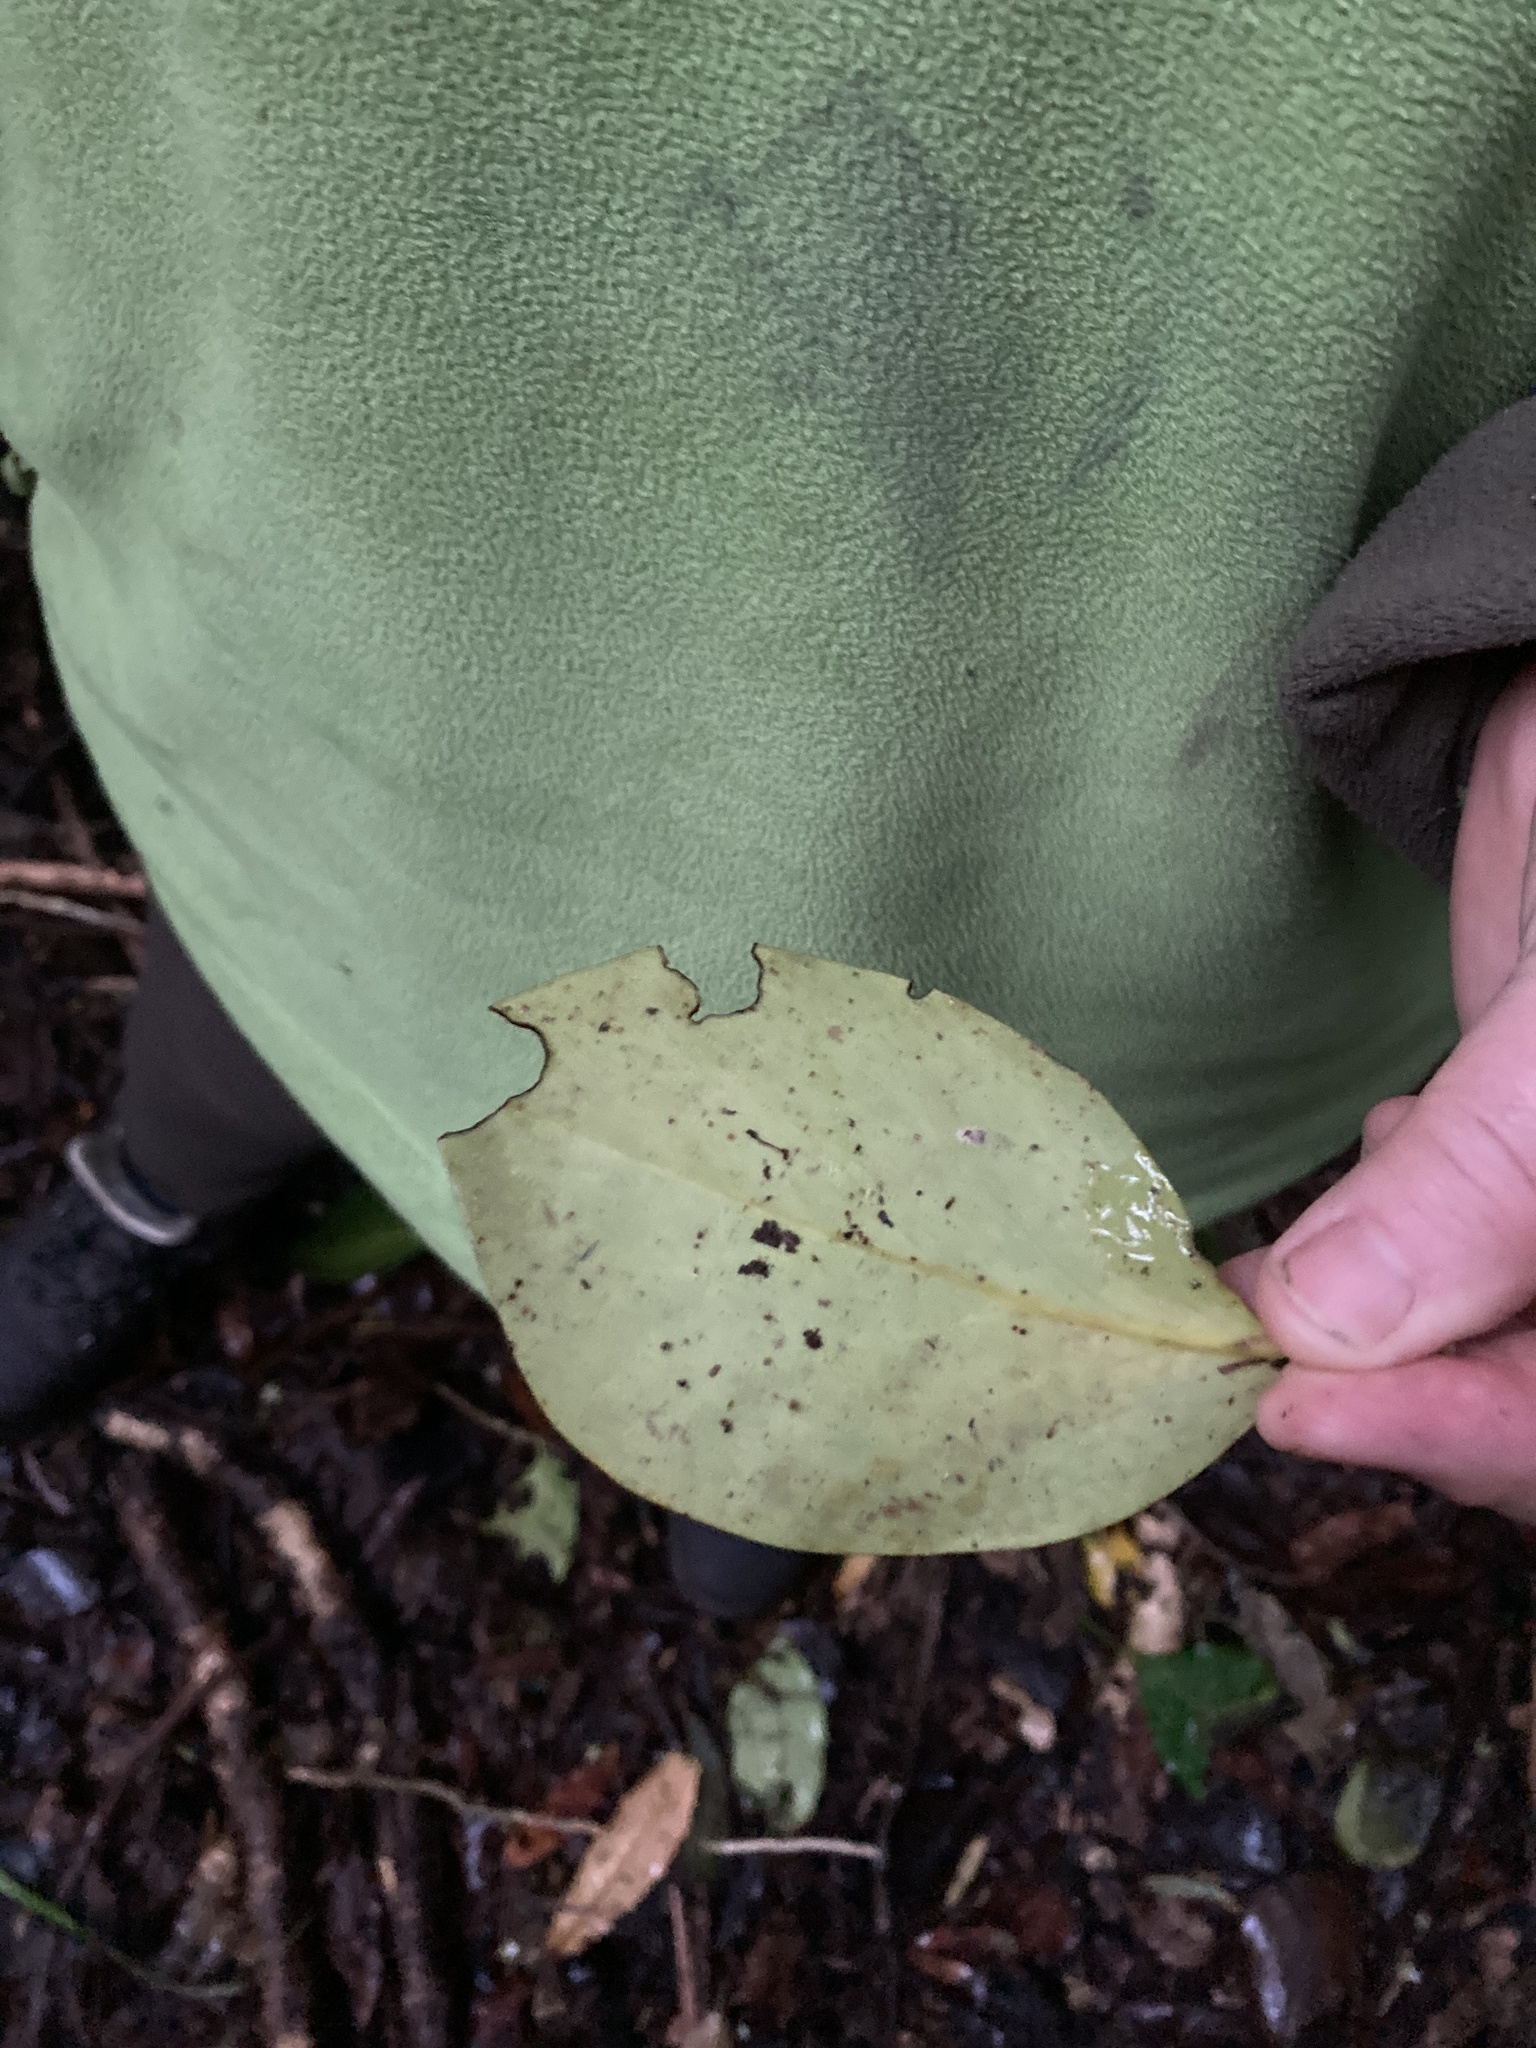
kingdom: Plantae
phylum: Tracheophyta
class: Magnoliopsida
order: Apiales
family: Griseliniaceae
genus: Griselinia
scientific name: Griselinia lucida
